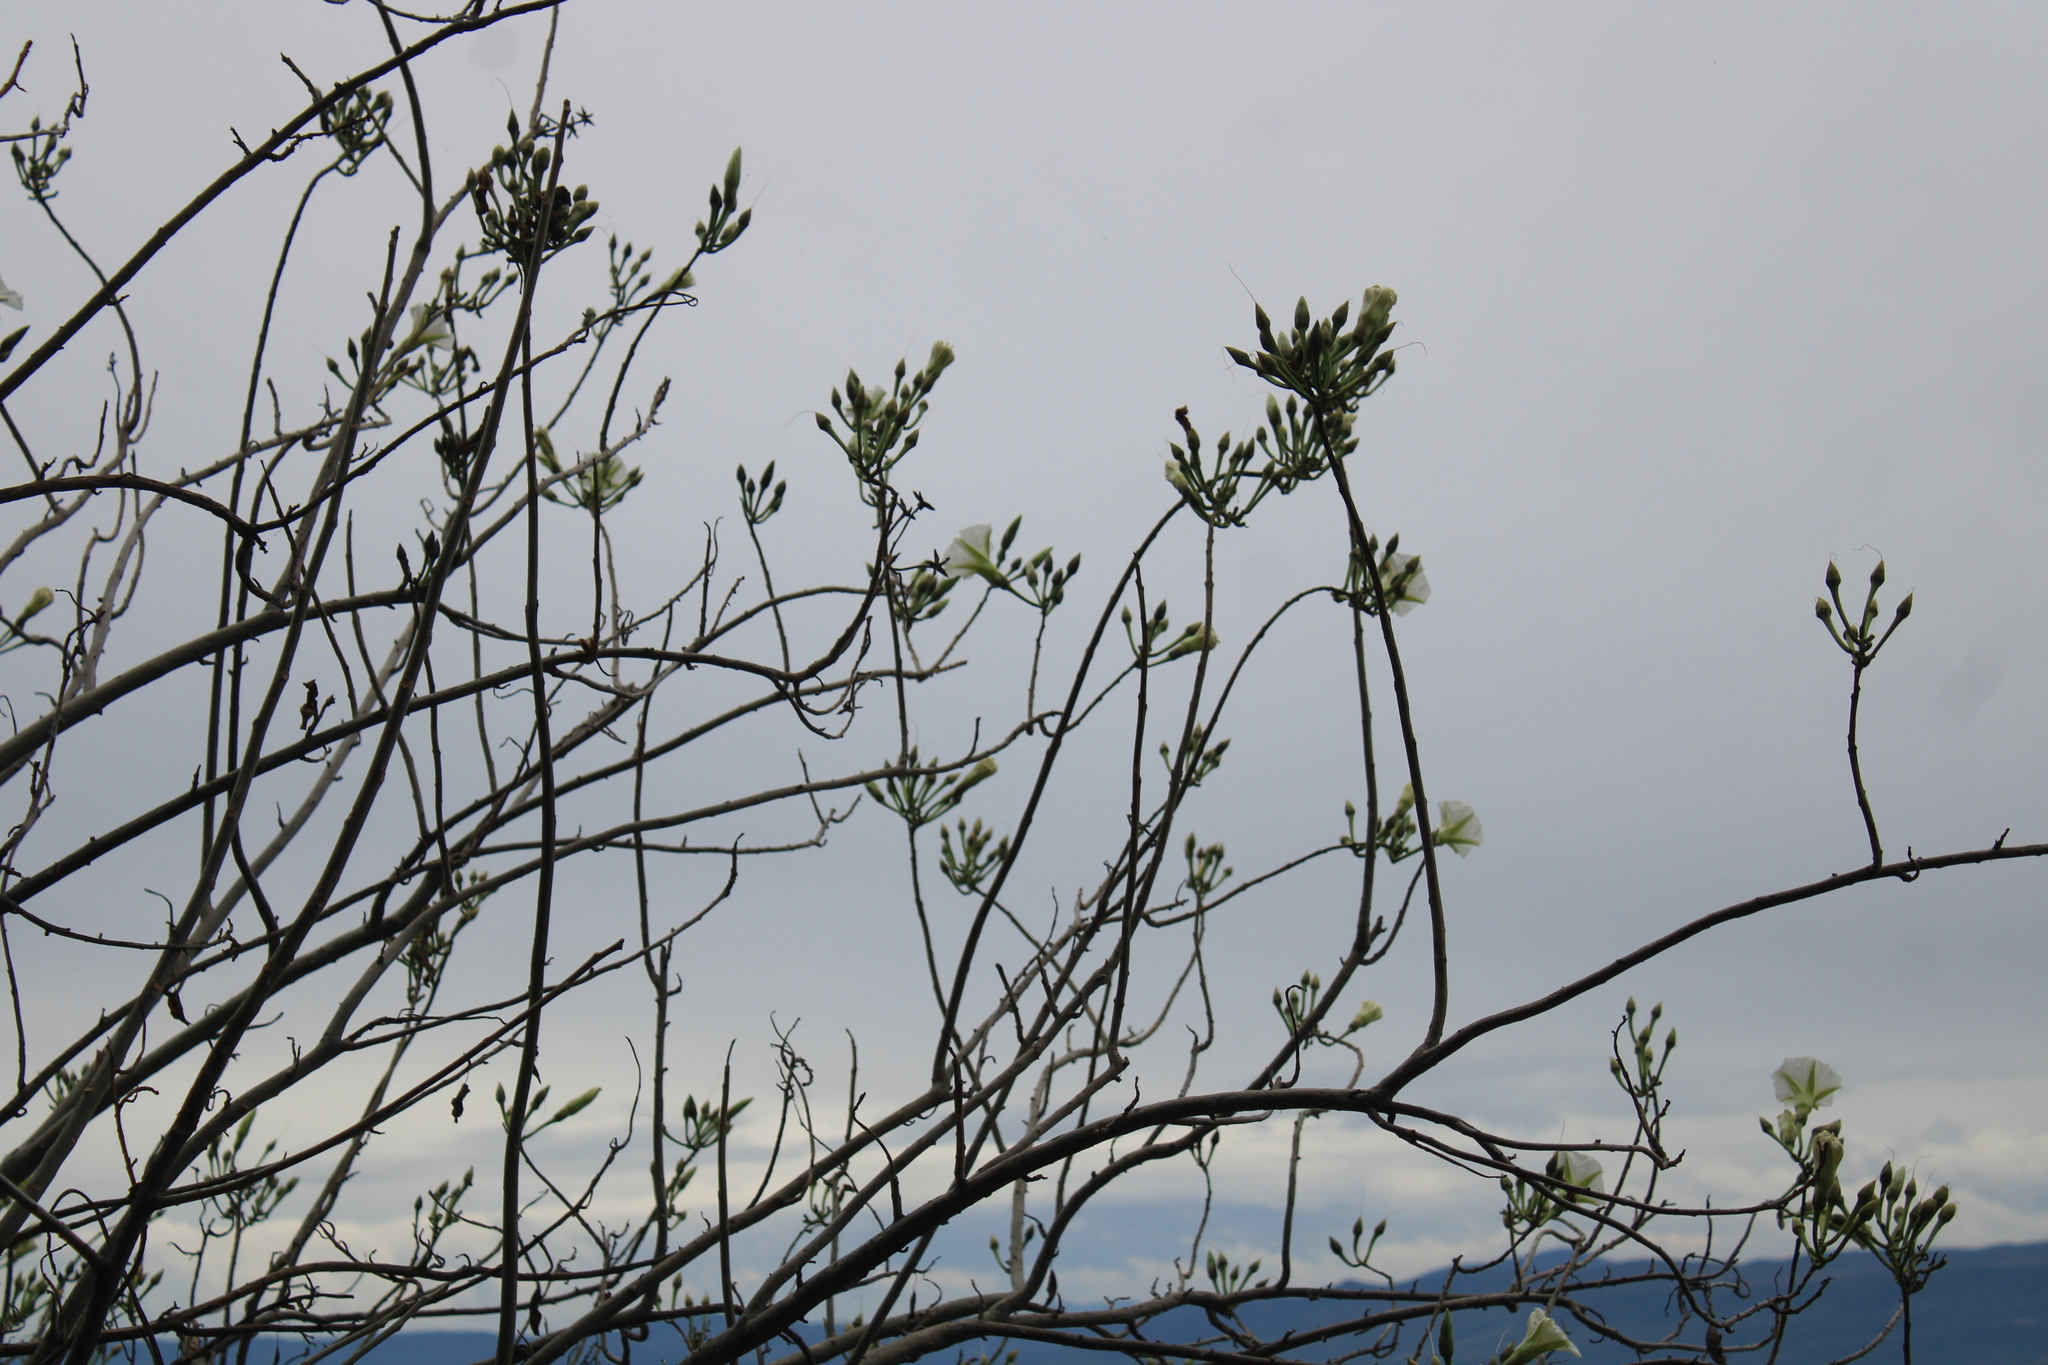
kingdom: Plantae
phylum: Tracheophyta
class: Magnoliopsida
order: Solanales
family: Convolvulaceae
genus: Ipomoea
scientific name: Ipomoea intrapilosa
